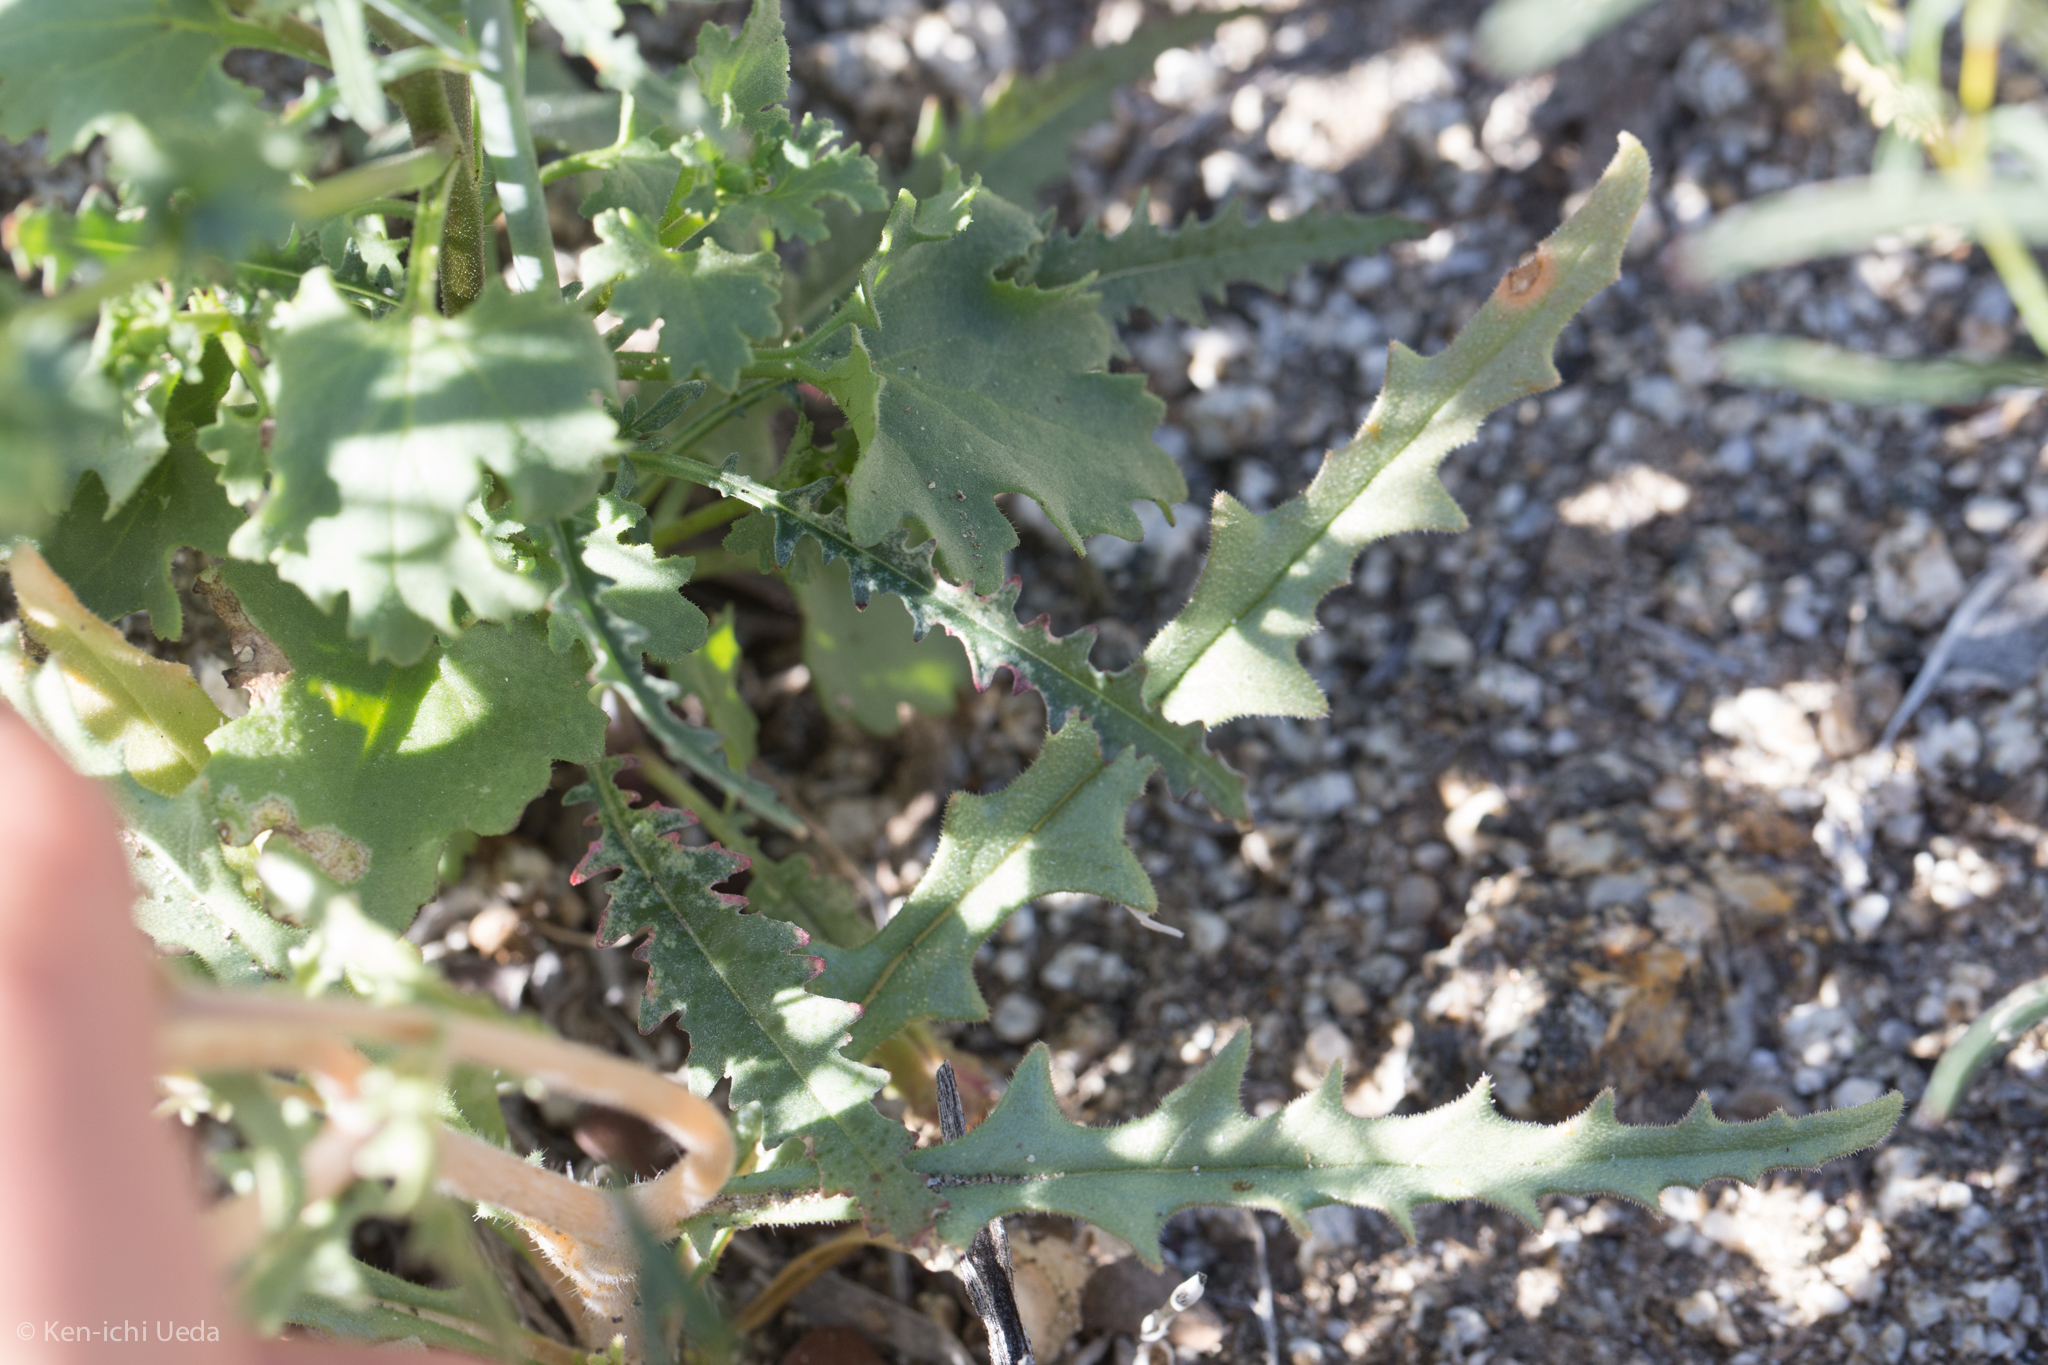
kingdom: Plantae
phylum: Tracheophyta
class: Magnoliopsida
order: Cornales
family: Loasaceae
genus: Mentzelia
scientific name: Mentzelia hirsutissima
